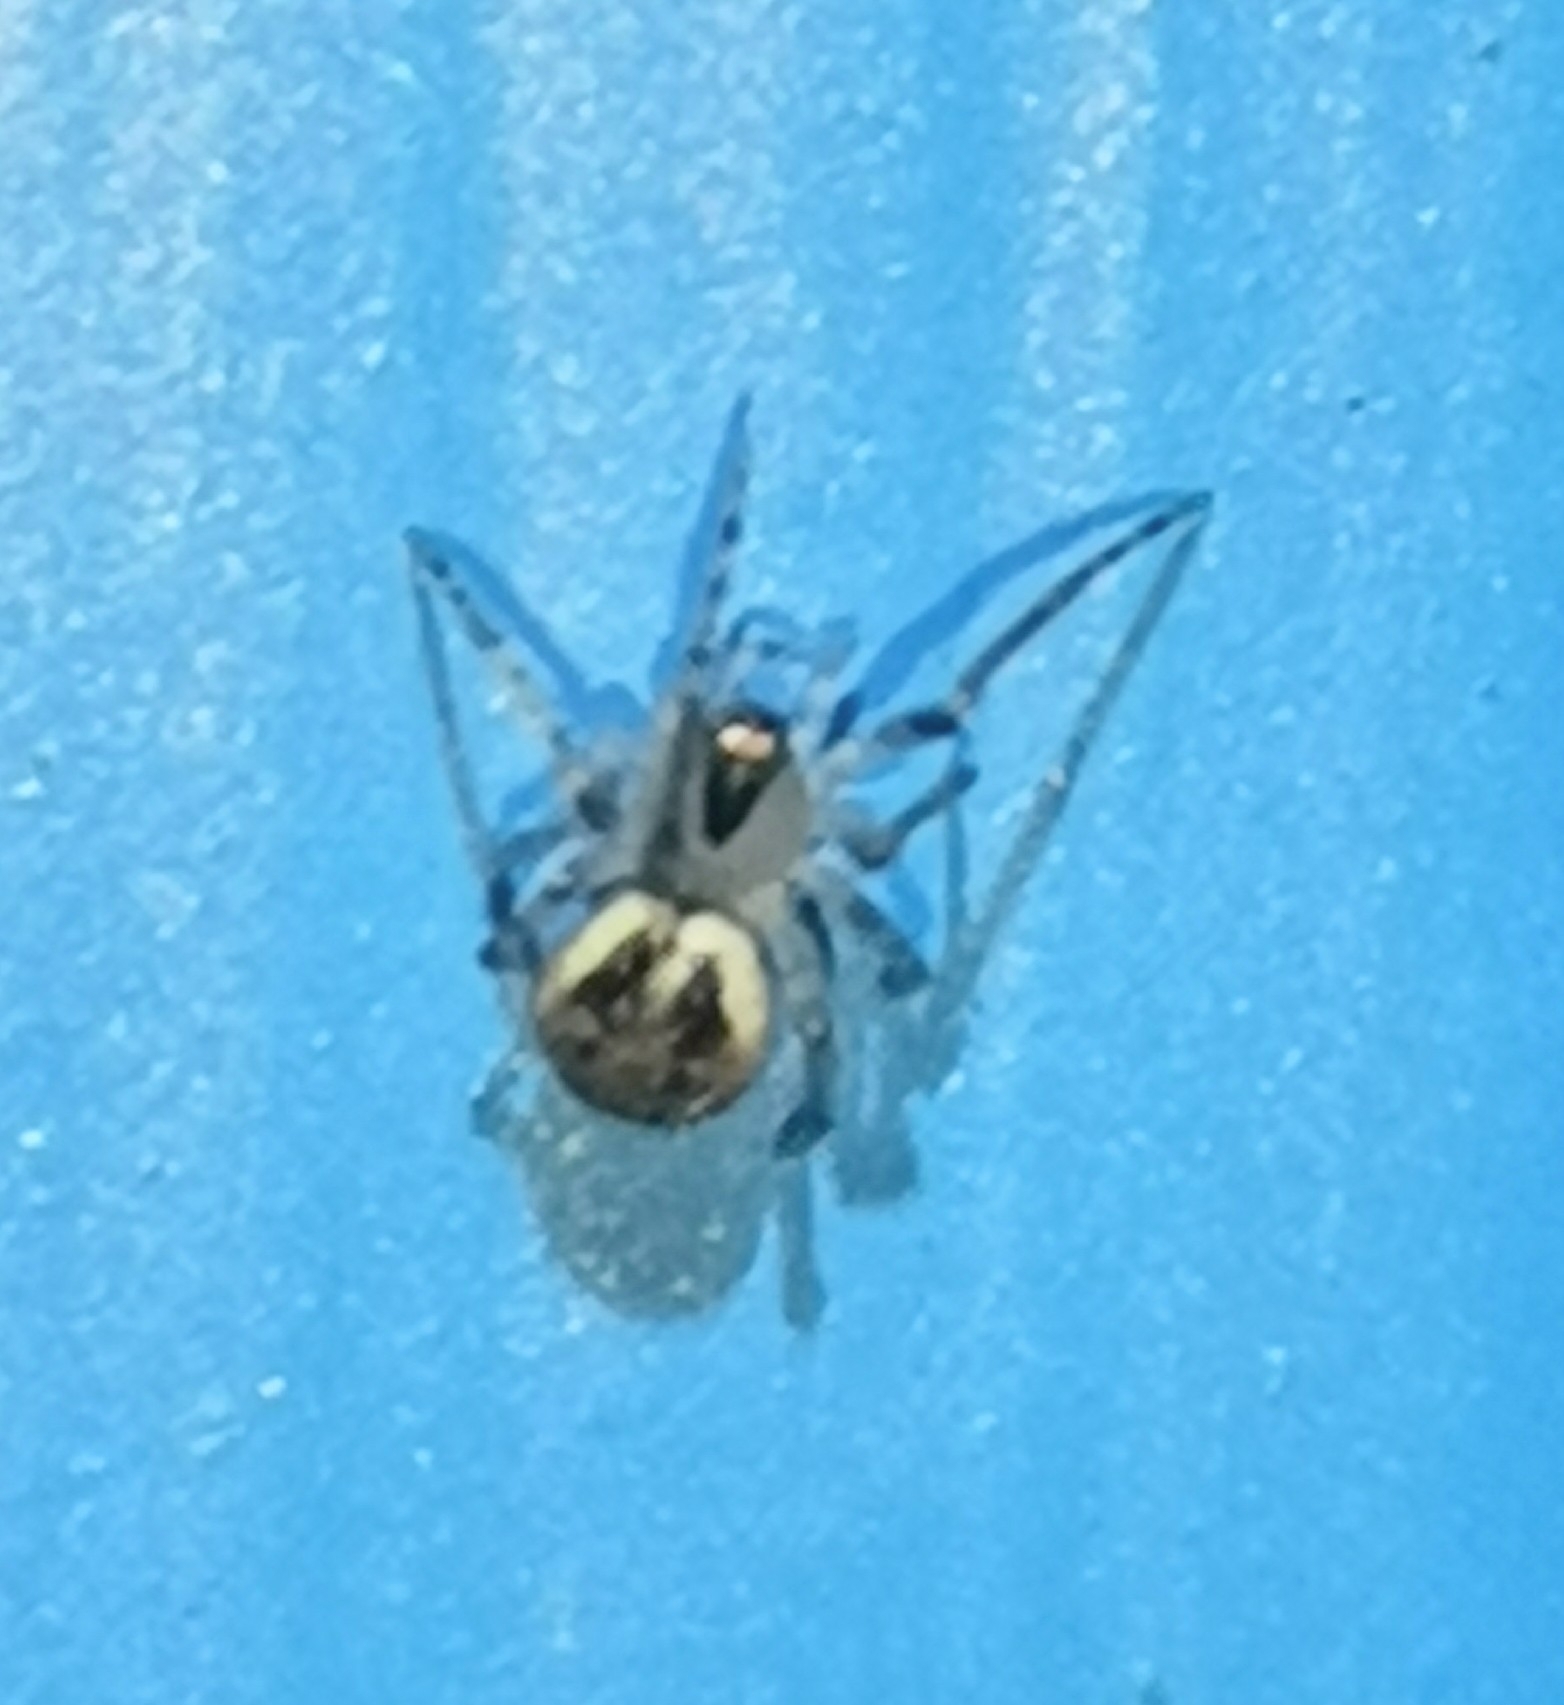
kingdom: Animalia
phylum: Arthropoda
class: Arachnida
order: Araneae
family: Theridiidae
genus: Platnickina
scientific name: Platnickina tincta
